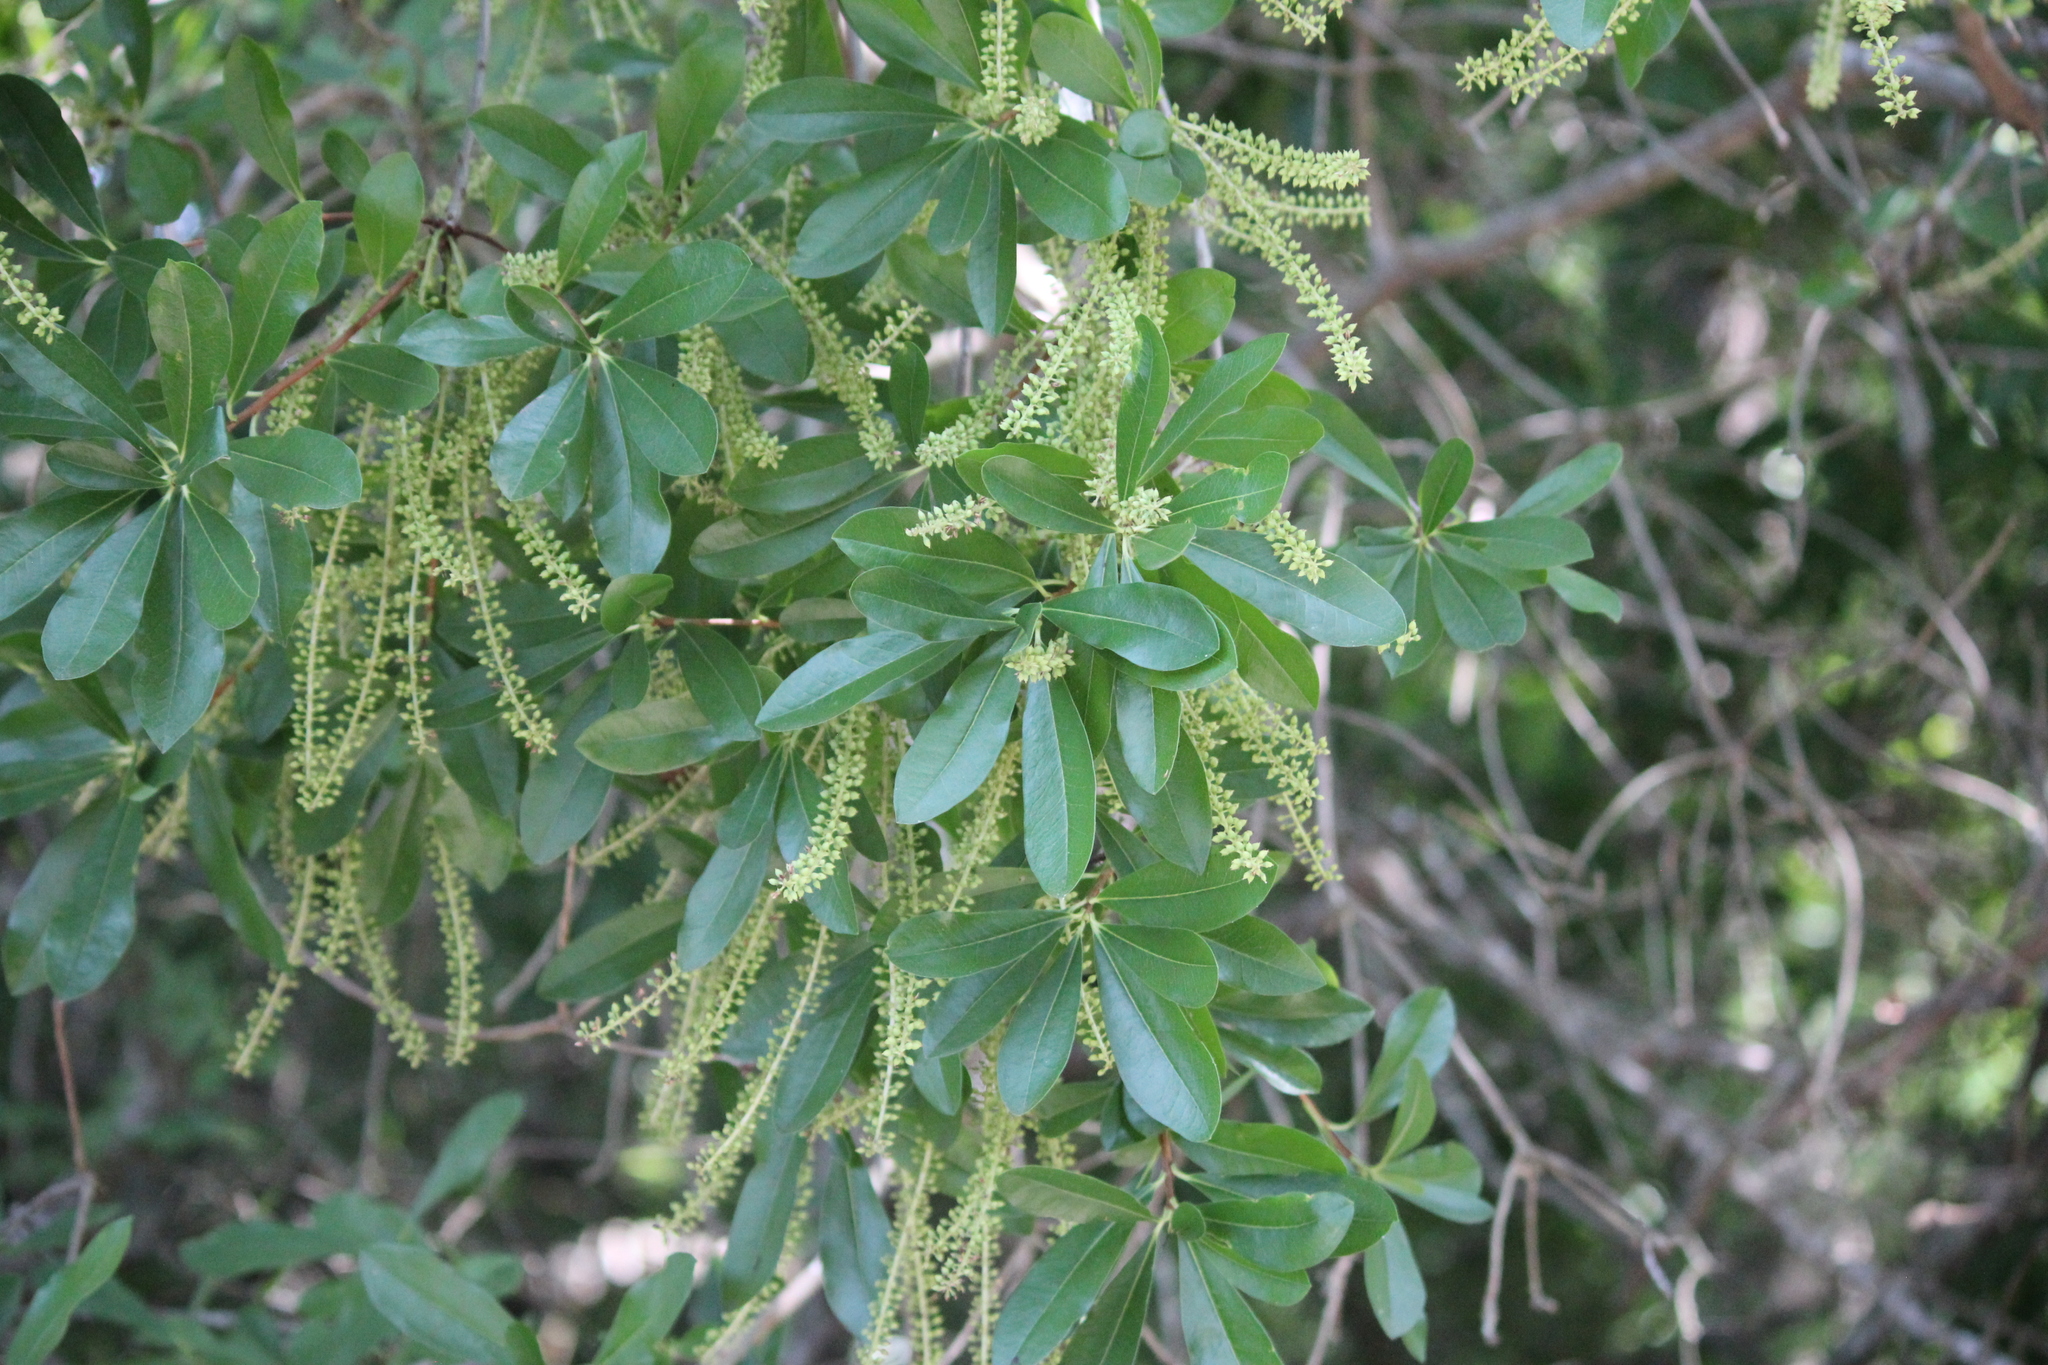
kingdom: Plantae
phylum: Tracheophyta
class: Magnoliopsida
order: Ericales
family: Cyrillaceae
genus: Cyrilla
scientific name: Cyrilla racemiflora
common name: Black titi
